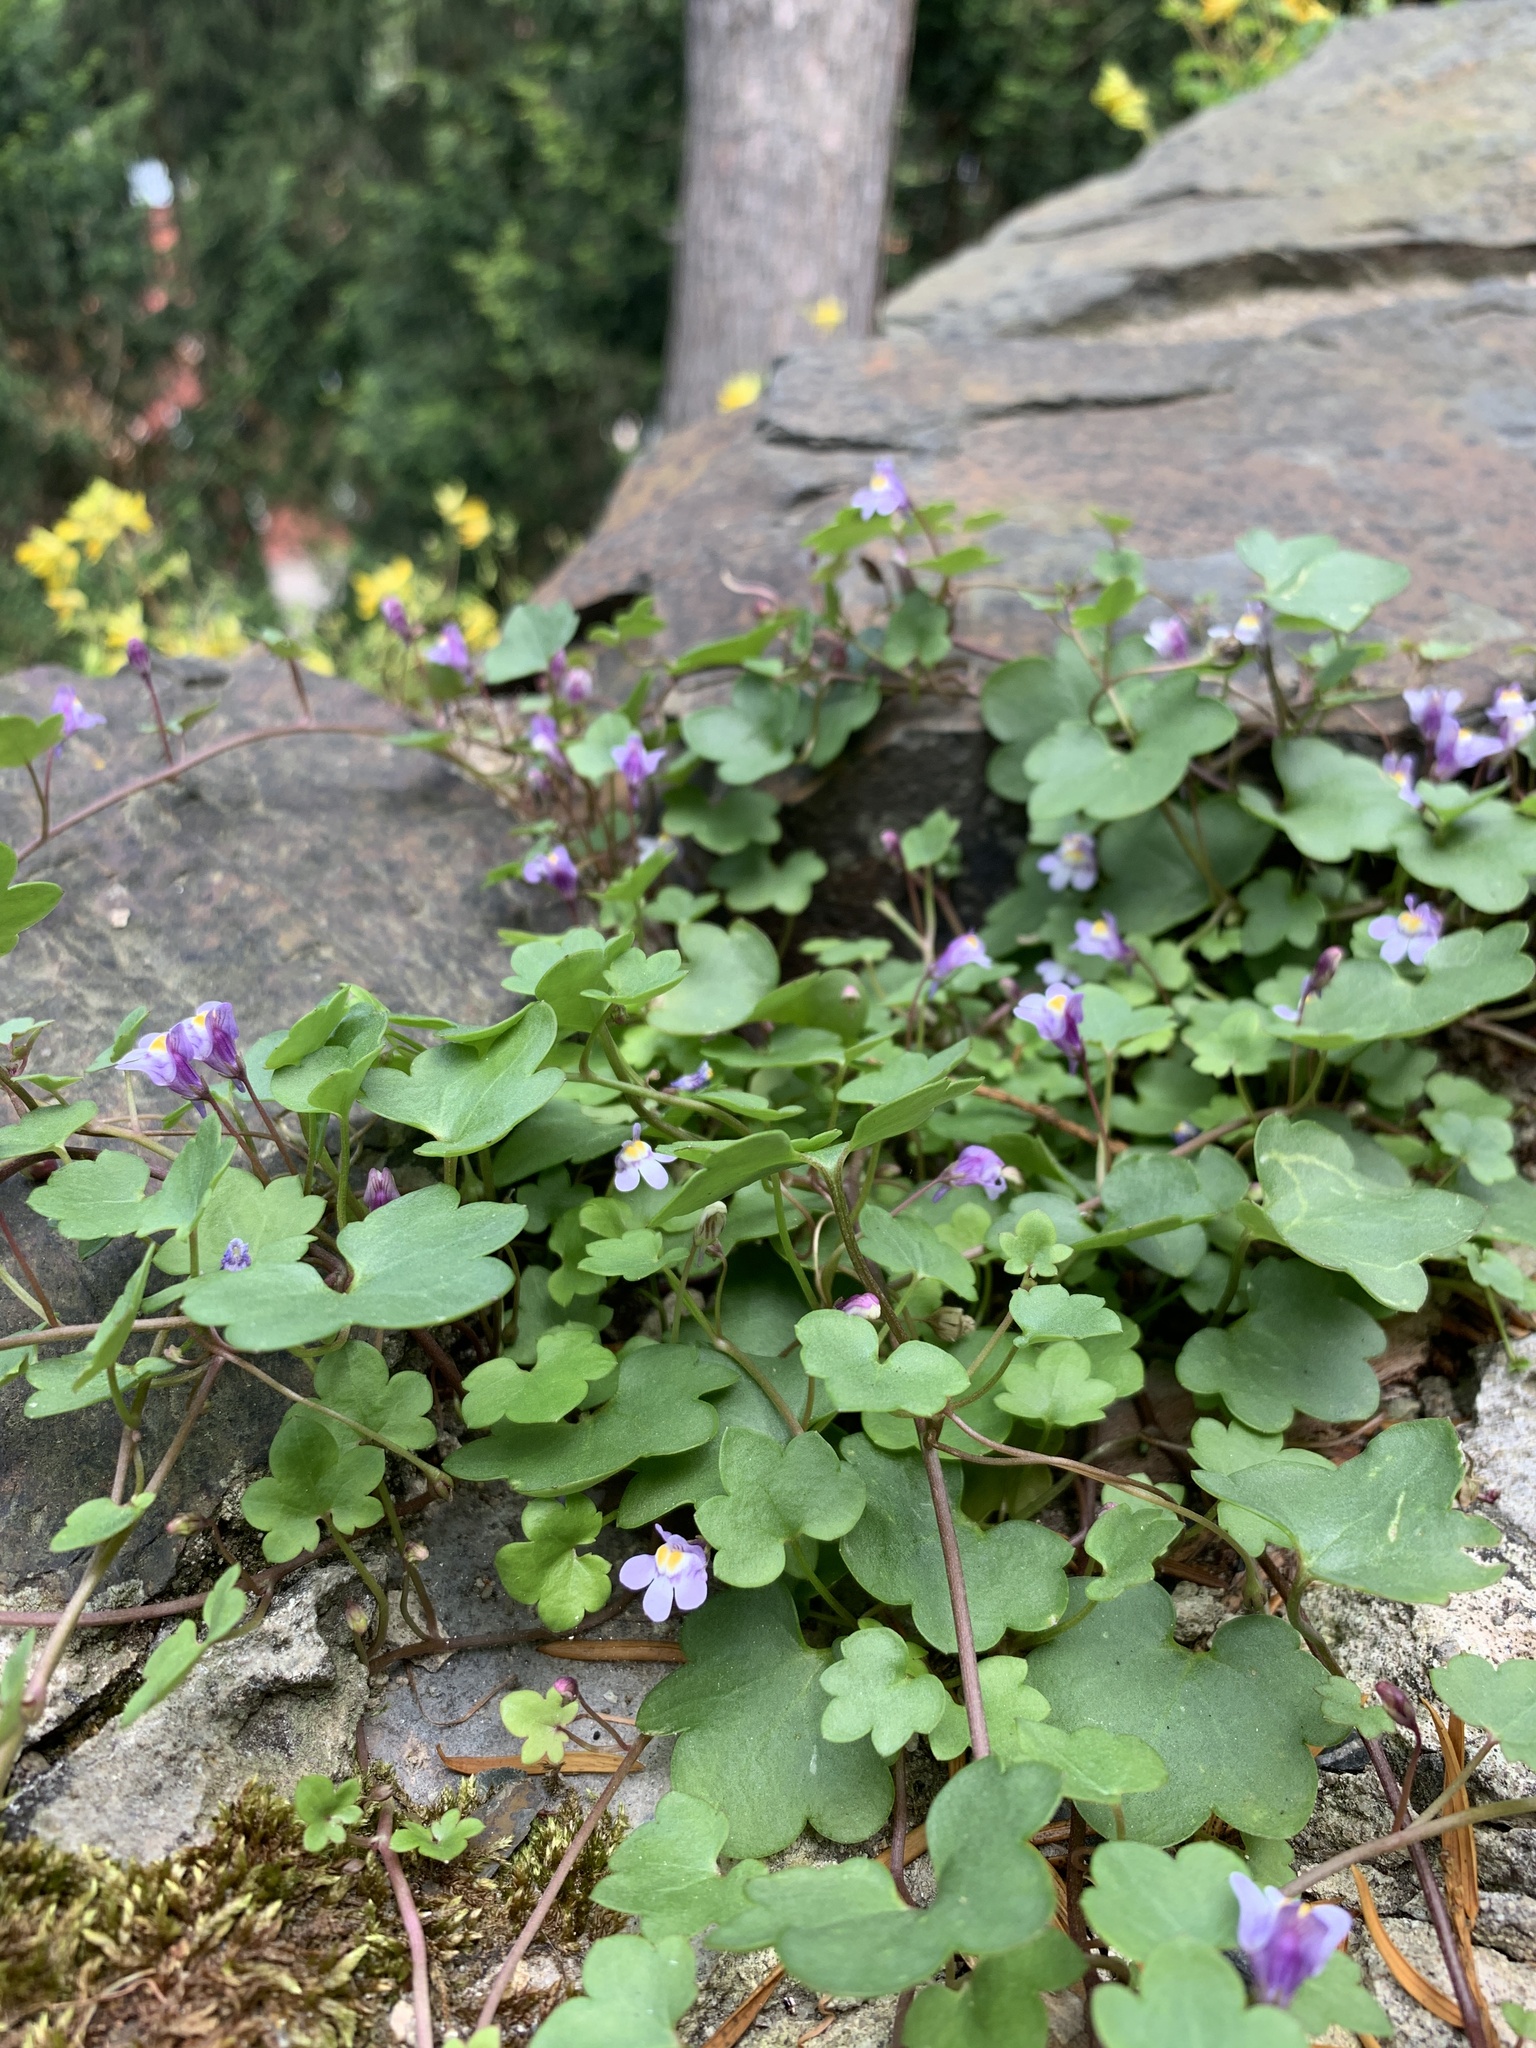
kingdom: Plantae
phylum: Tracheophyta
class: Magnoliopsida
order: Lamiales
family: Plantaginaceae
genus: Cymbalaria
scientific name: Cymbalaria muralis
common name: Ivy-leaved toadflax
